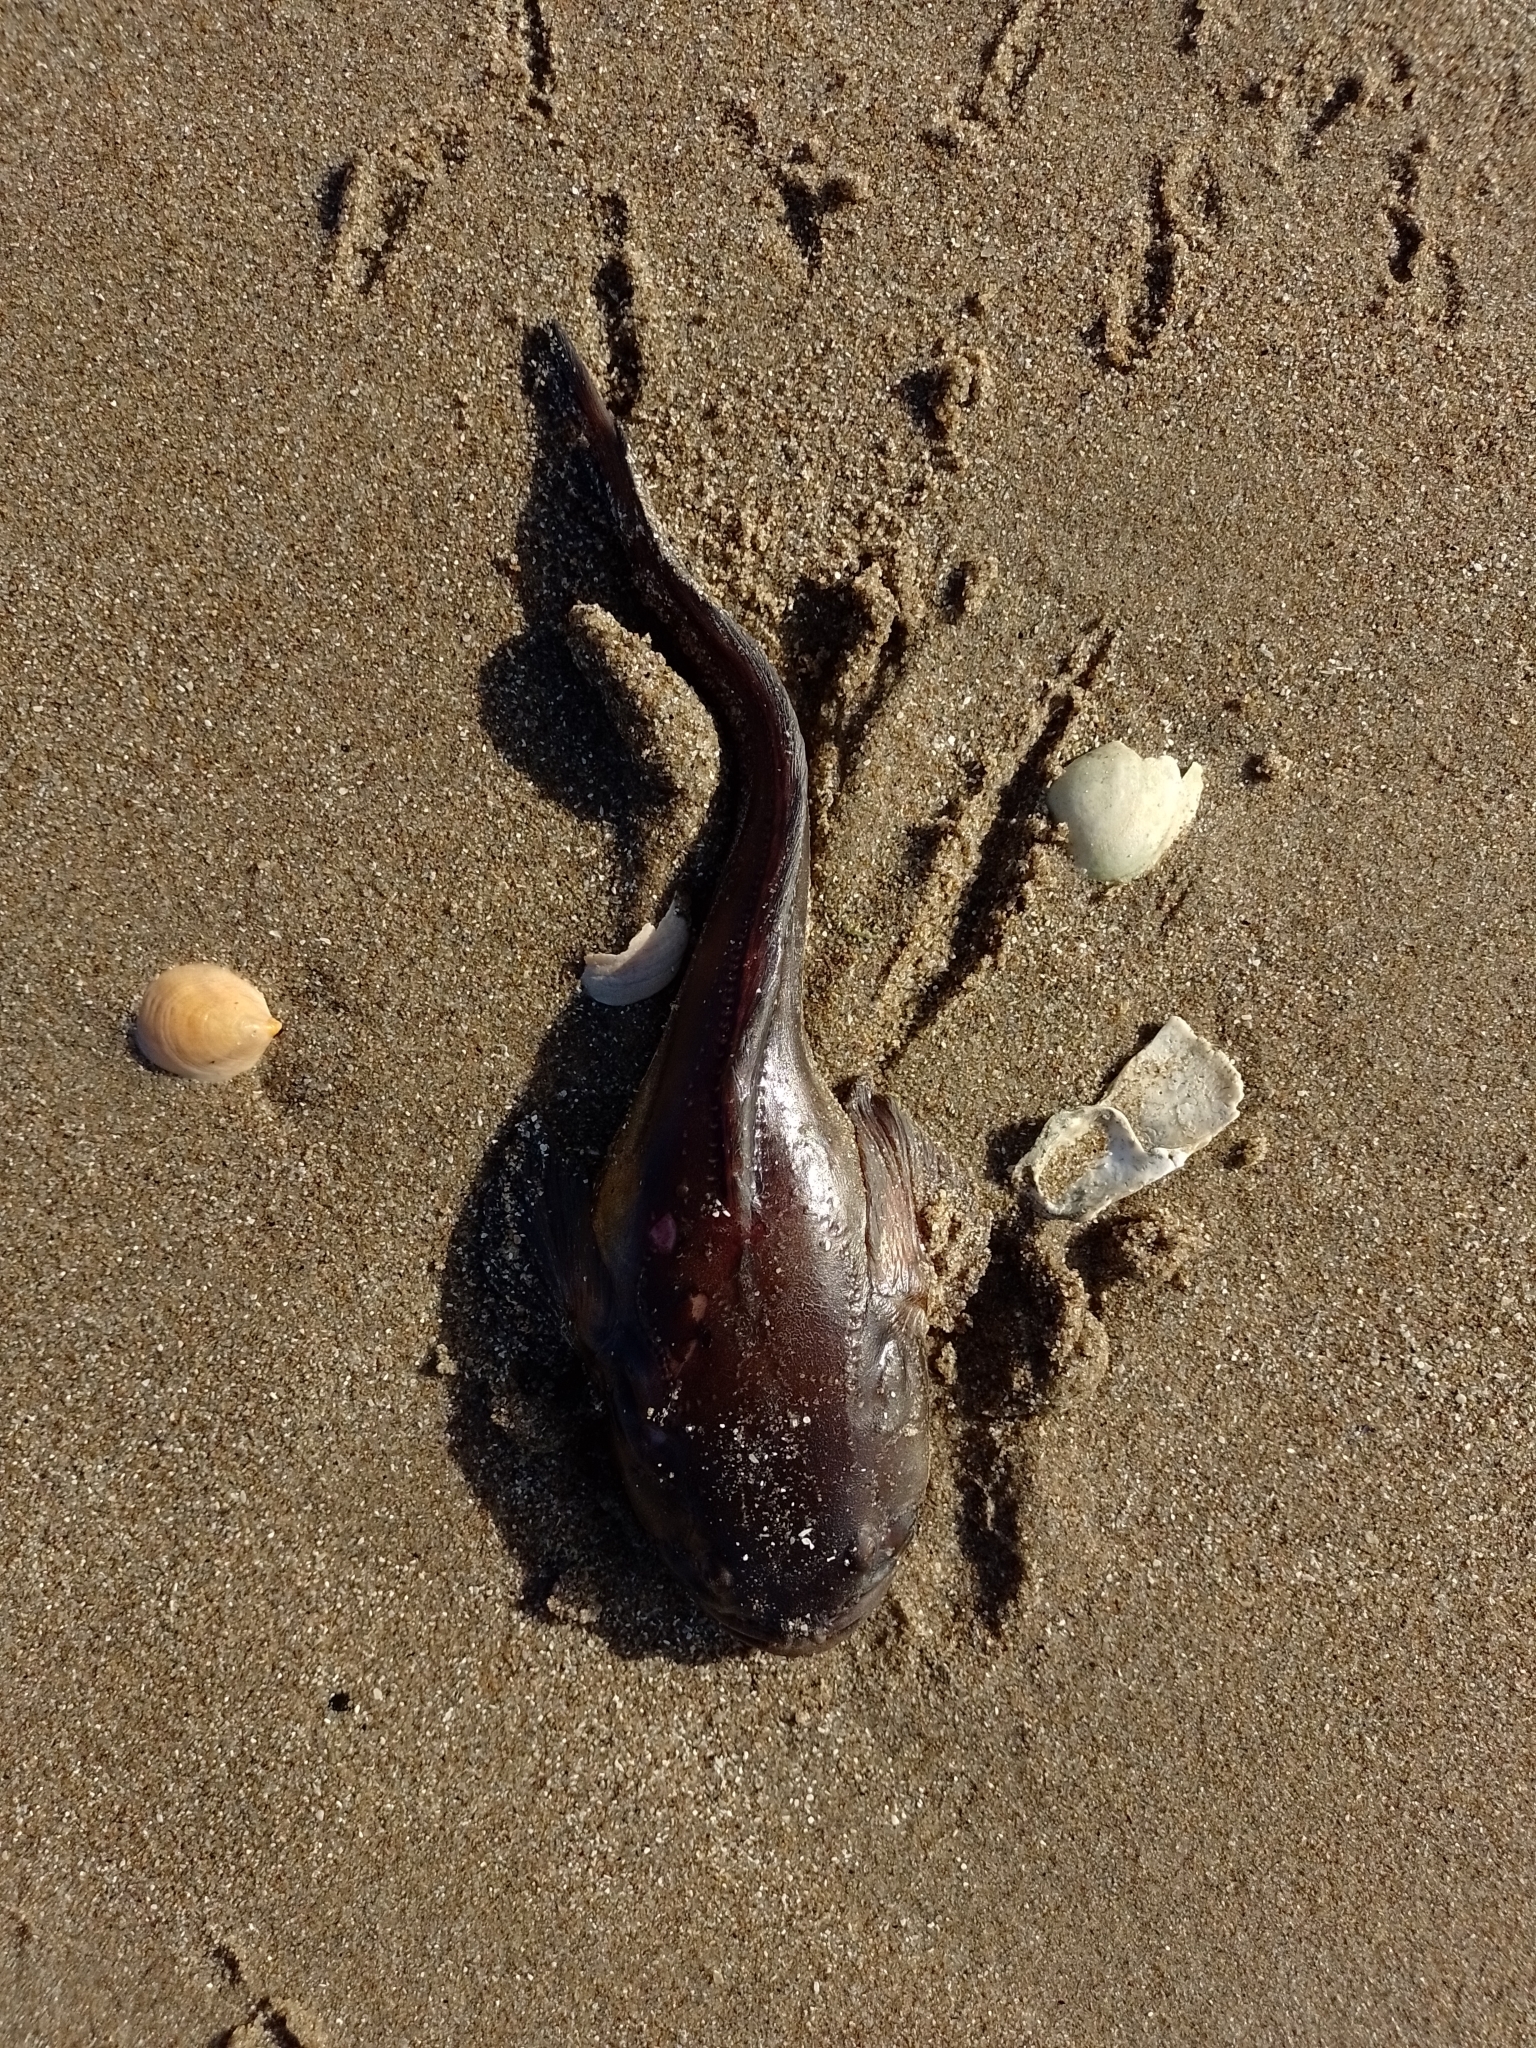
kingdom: Animalia
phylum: Chordata
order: Batrachoidiformes
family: Batrachoididae
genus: Porichthys
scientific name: Porichthys porosissimus
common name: Toadfish
